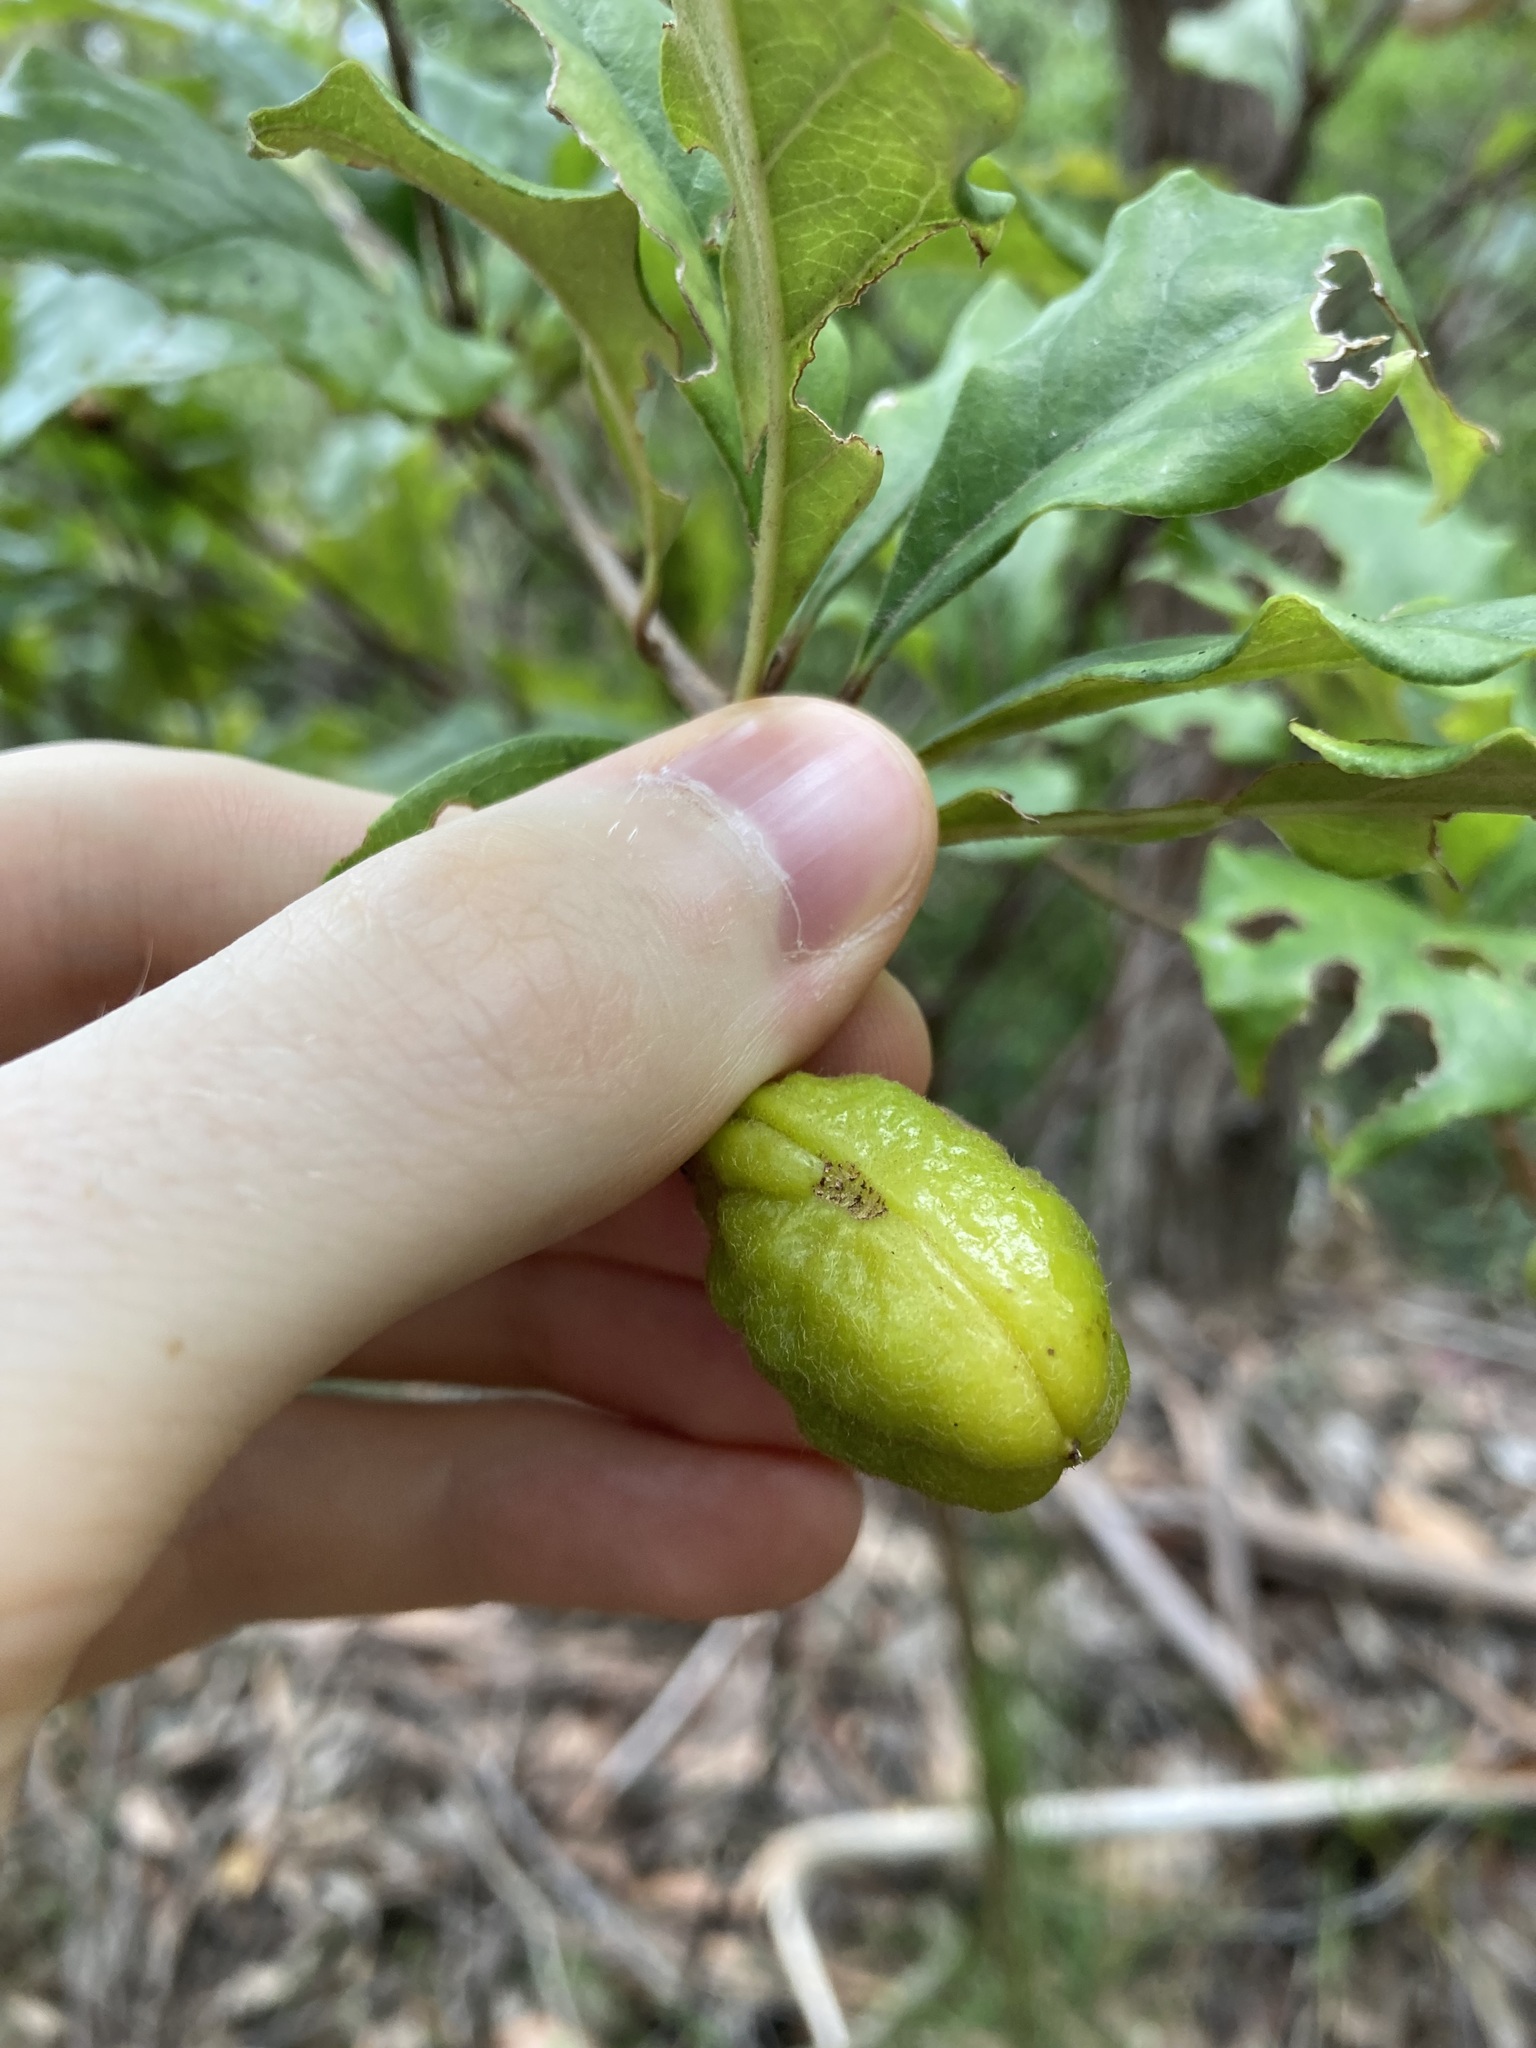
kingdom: Plantae
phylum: Tracheophyta
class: Magnoliopsida
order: Apiales
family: Pittosporaceae
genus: Pittosporum
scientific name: Pittosporum revolutum
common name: Brisbane-laurel
